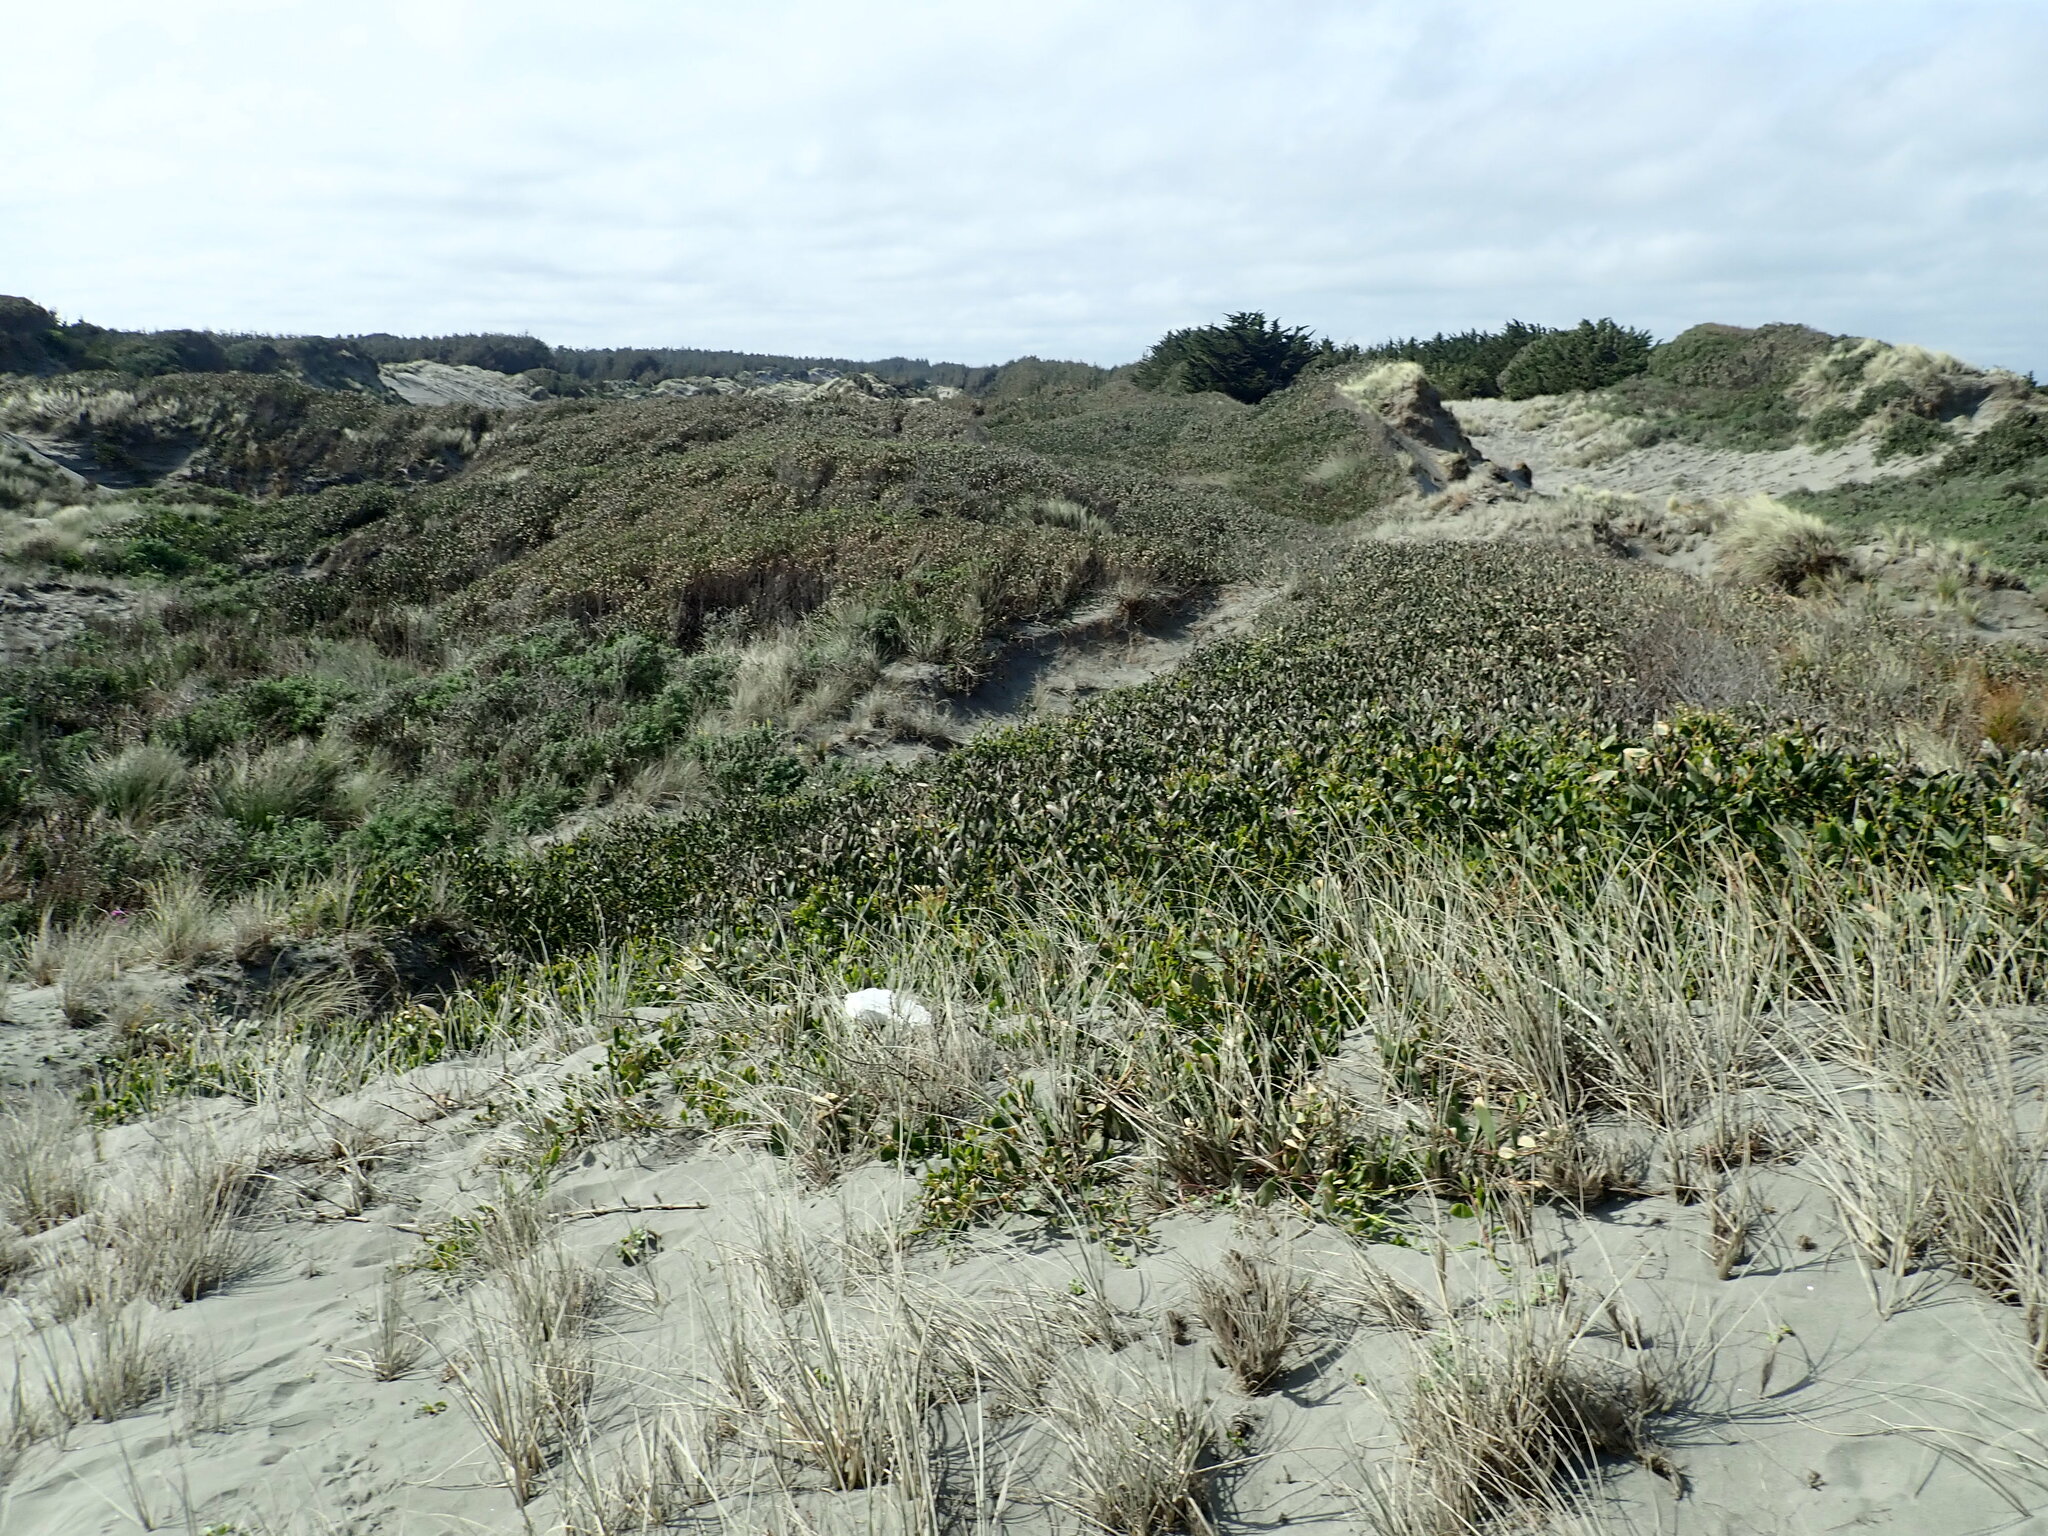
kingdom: Plantae
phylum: Tracheophyta
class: Magnoliopsida
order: Fabales
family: Fabaceae
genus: Acacia
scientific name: Acacia longifolia
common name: Sydney golden wattle
